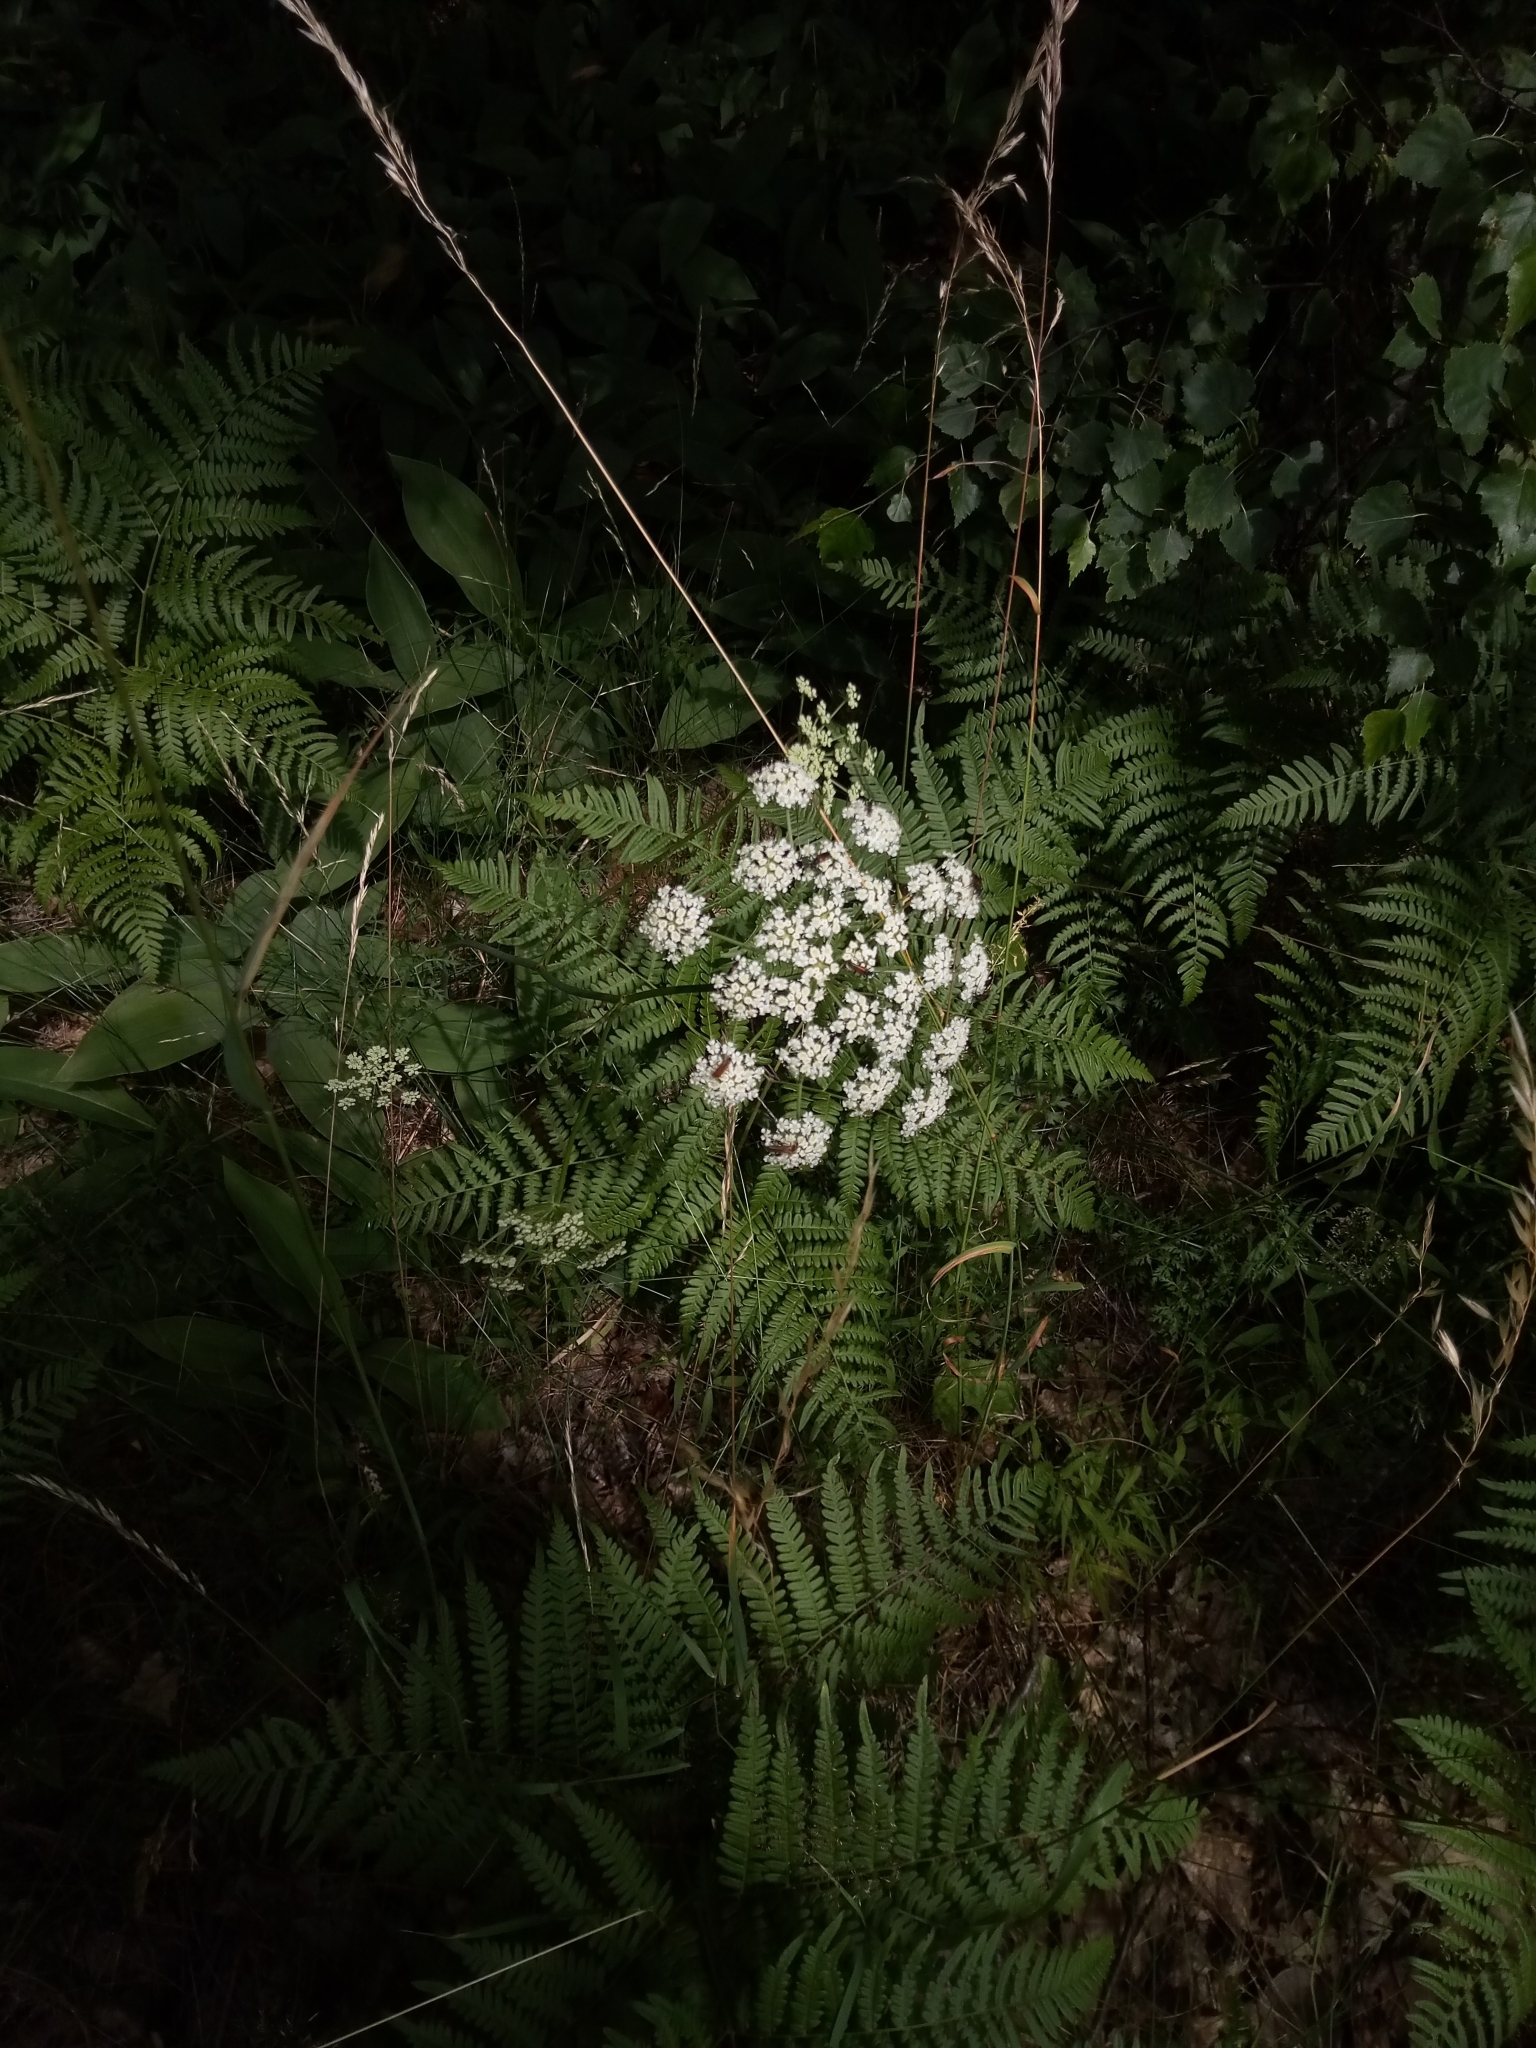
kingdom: Plantae
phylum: Tracheophyta
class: Magnoliopsida
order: Apiales
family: Apiaceae
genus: Oreoselinum
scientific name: Oreoselinum nigrum
